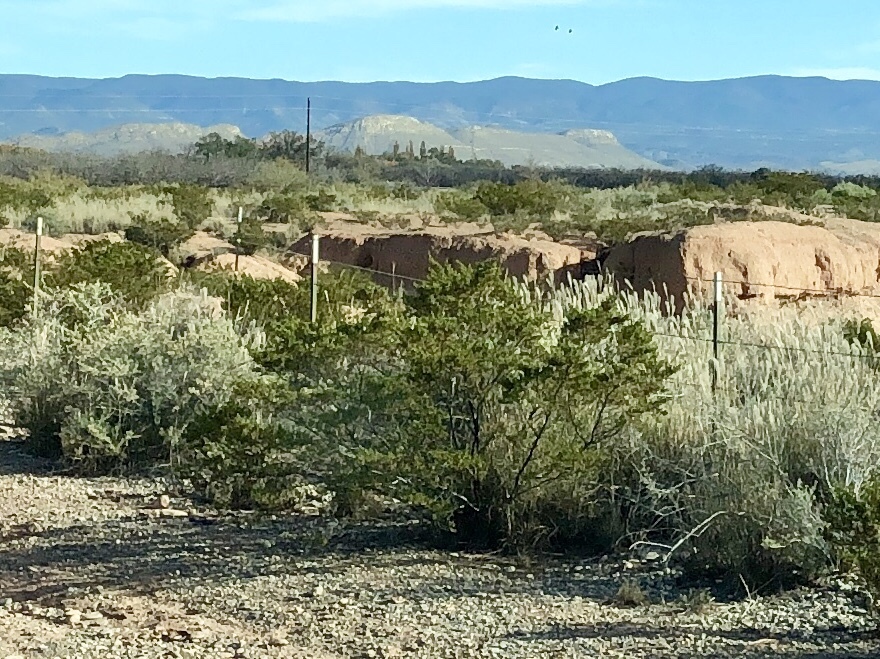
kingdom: Plantae
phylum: Tracheophyta
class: Magnoliopsida
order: Zygophyllales
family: Zygophyllaceae
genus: Larrea
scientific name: Larrea tridentata
